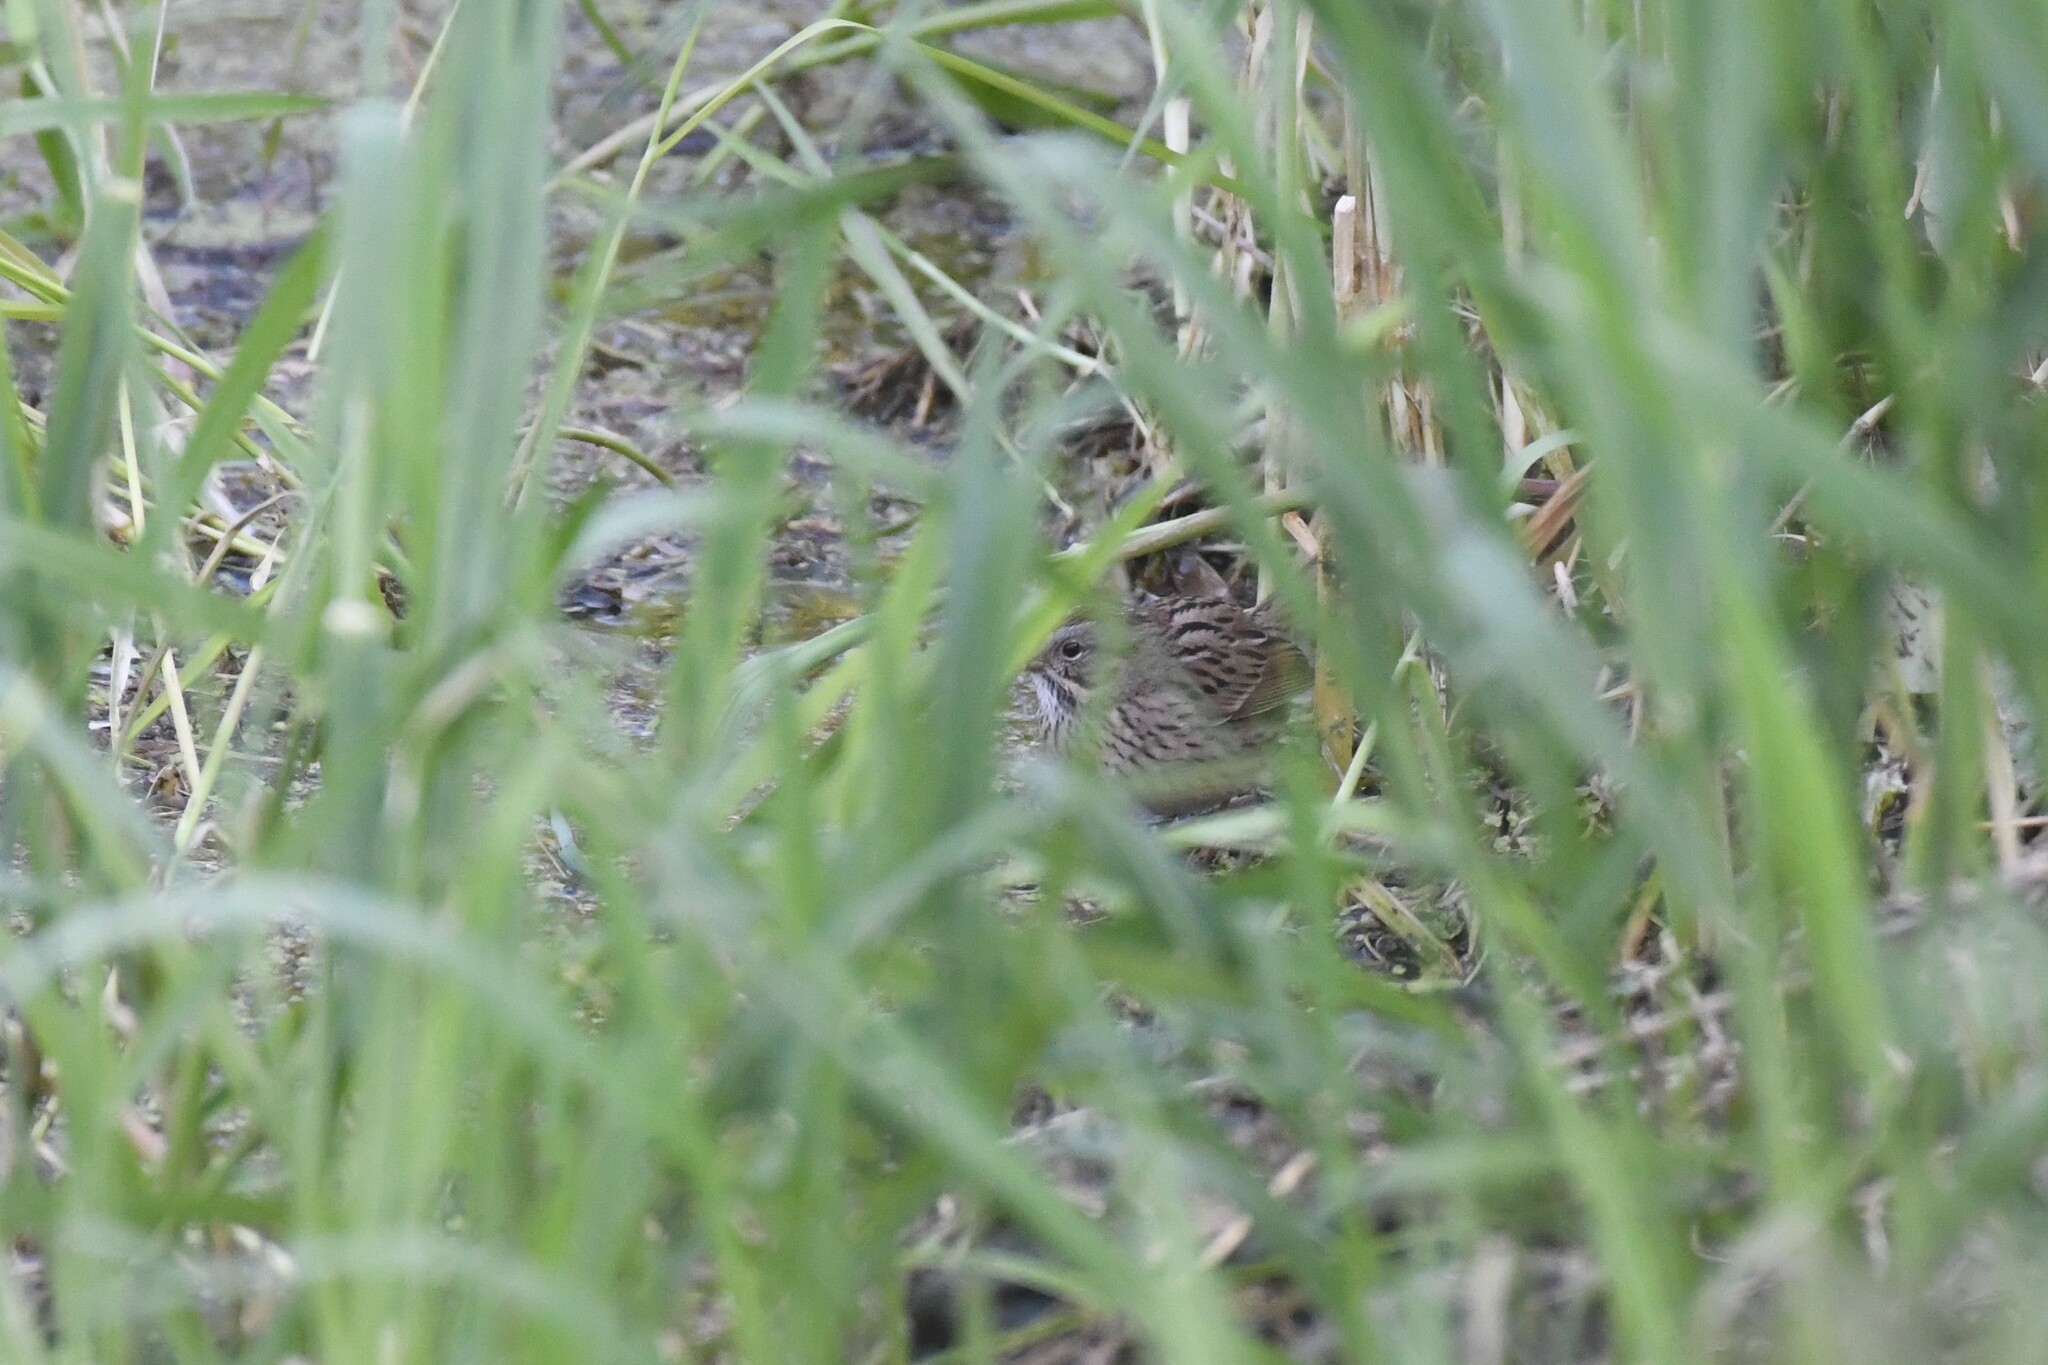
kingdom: Animalia
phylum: Chordata
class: Aves
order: Passeriformes
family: Passerellidae
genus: Melospiza
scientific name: Melospiza lincolnii
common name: Lincoln's sparrow
